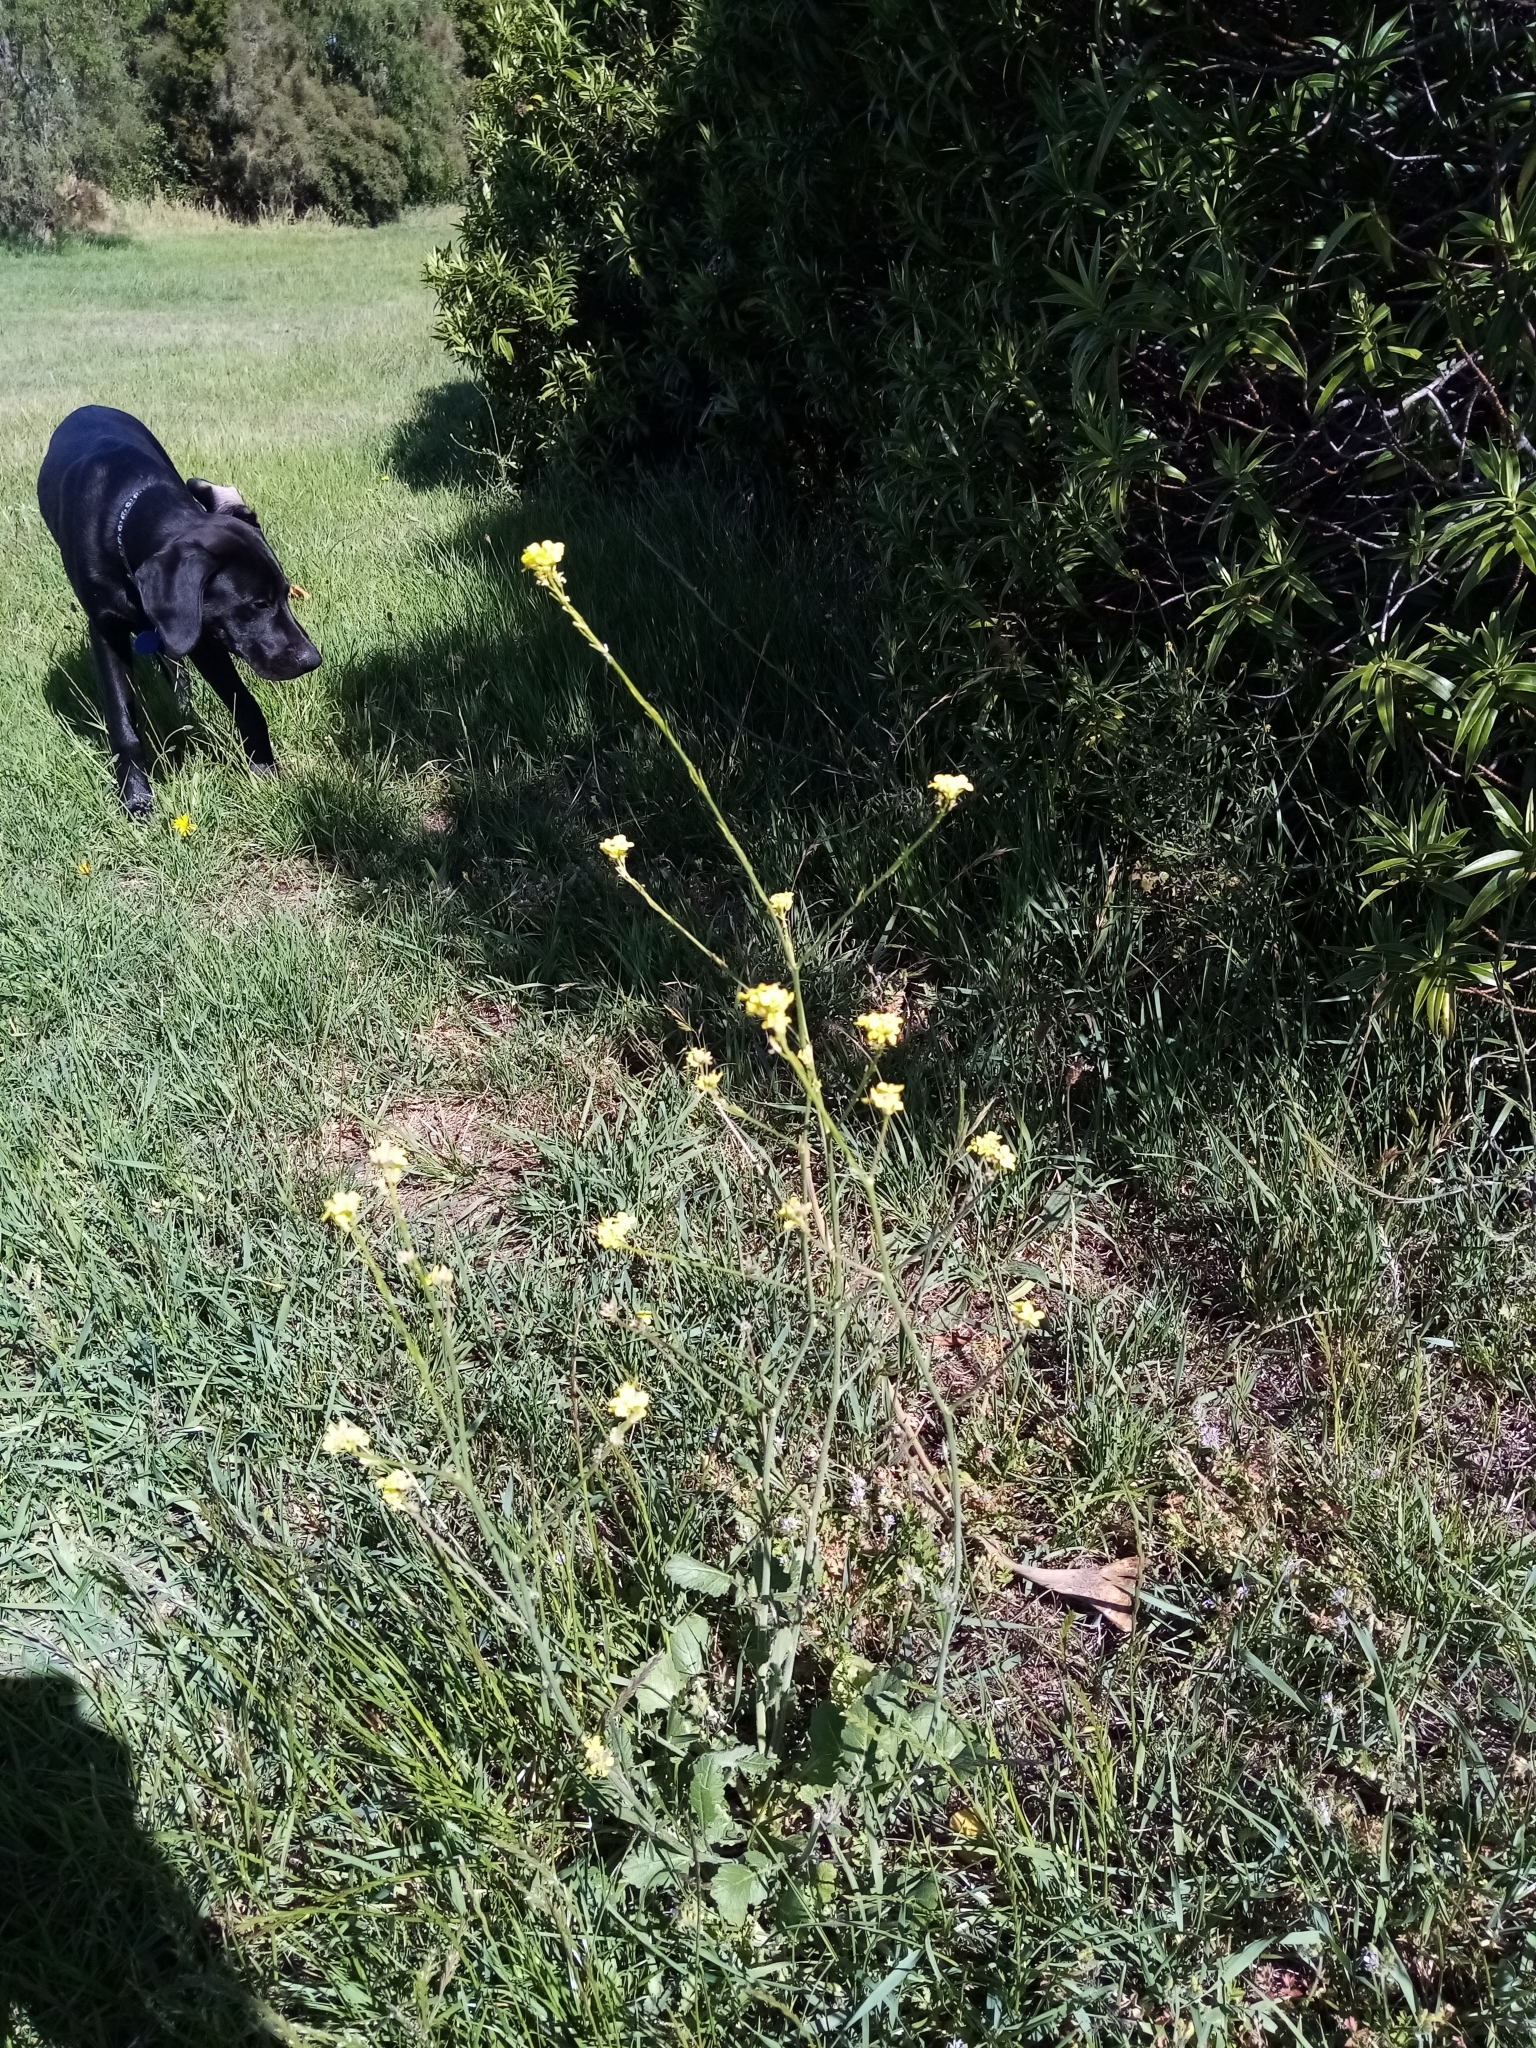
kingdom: Plantae
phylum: Tracheophyta
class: Magnoliopsida
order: Brassicales
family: Brassicaceae
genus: Hirschfeldia
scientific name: Hirschfeldia incana
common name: Hoary mustard
